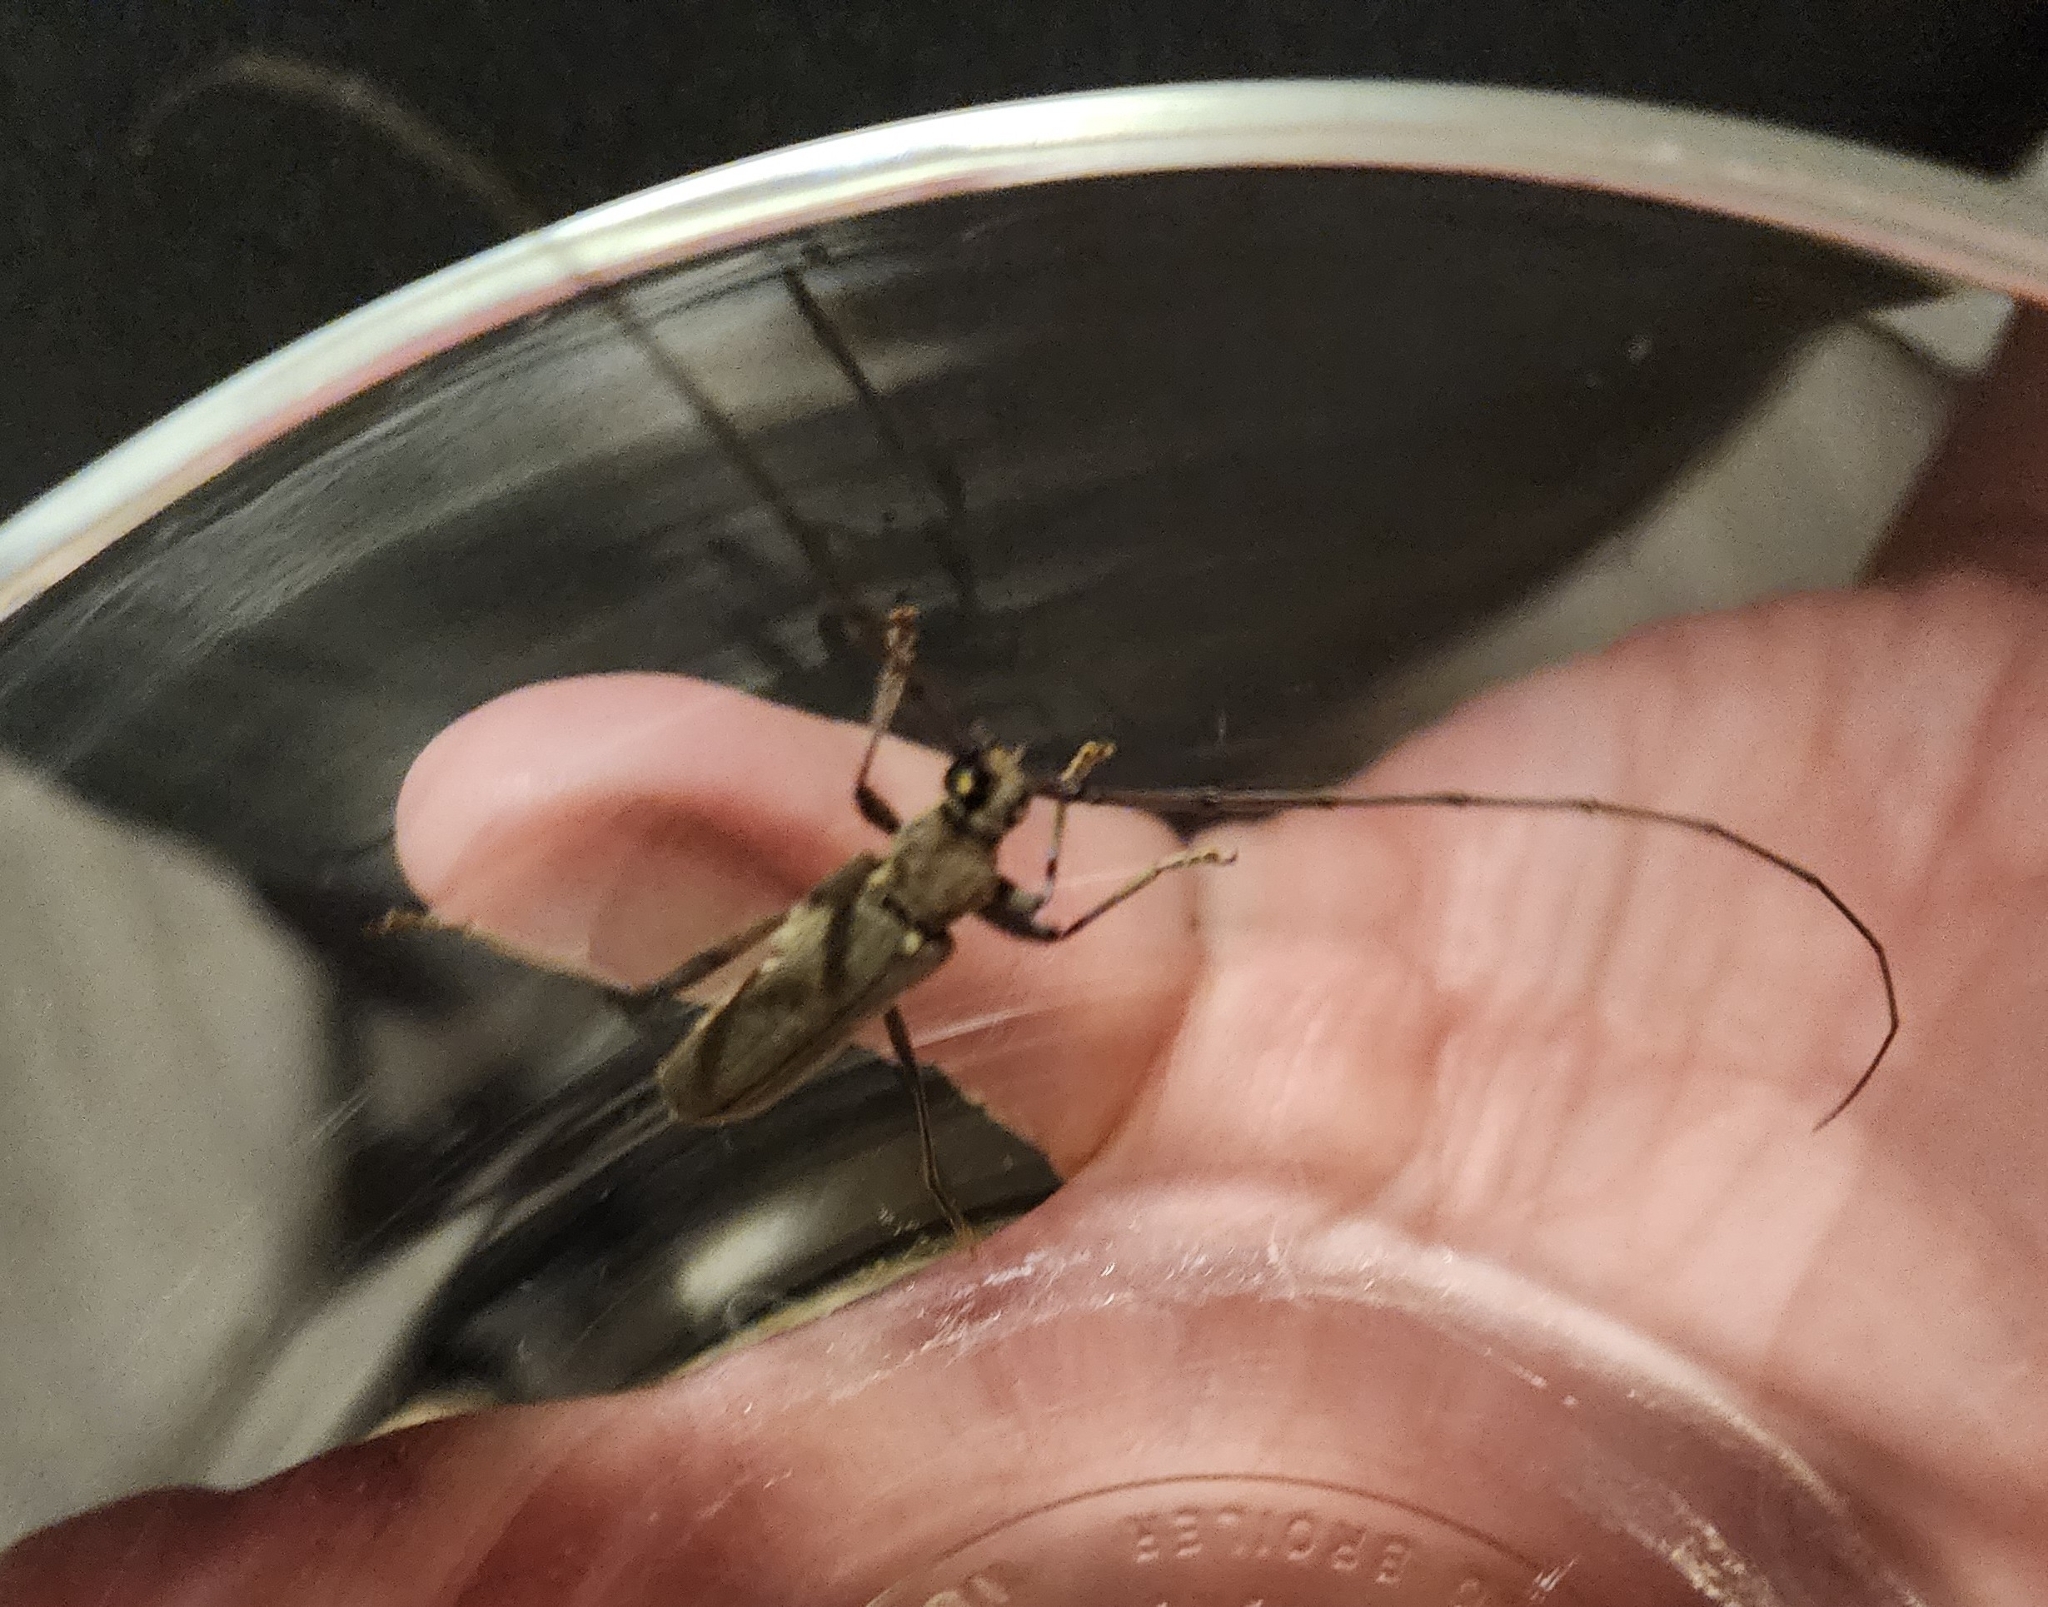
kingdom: Animalia
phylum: Arthropoda
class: Insecta
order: Coleoptera
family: Cerambycidae
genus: Knulliana
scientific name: Knulliana cincta
